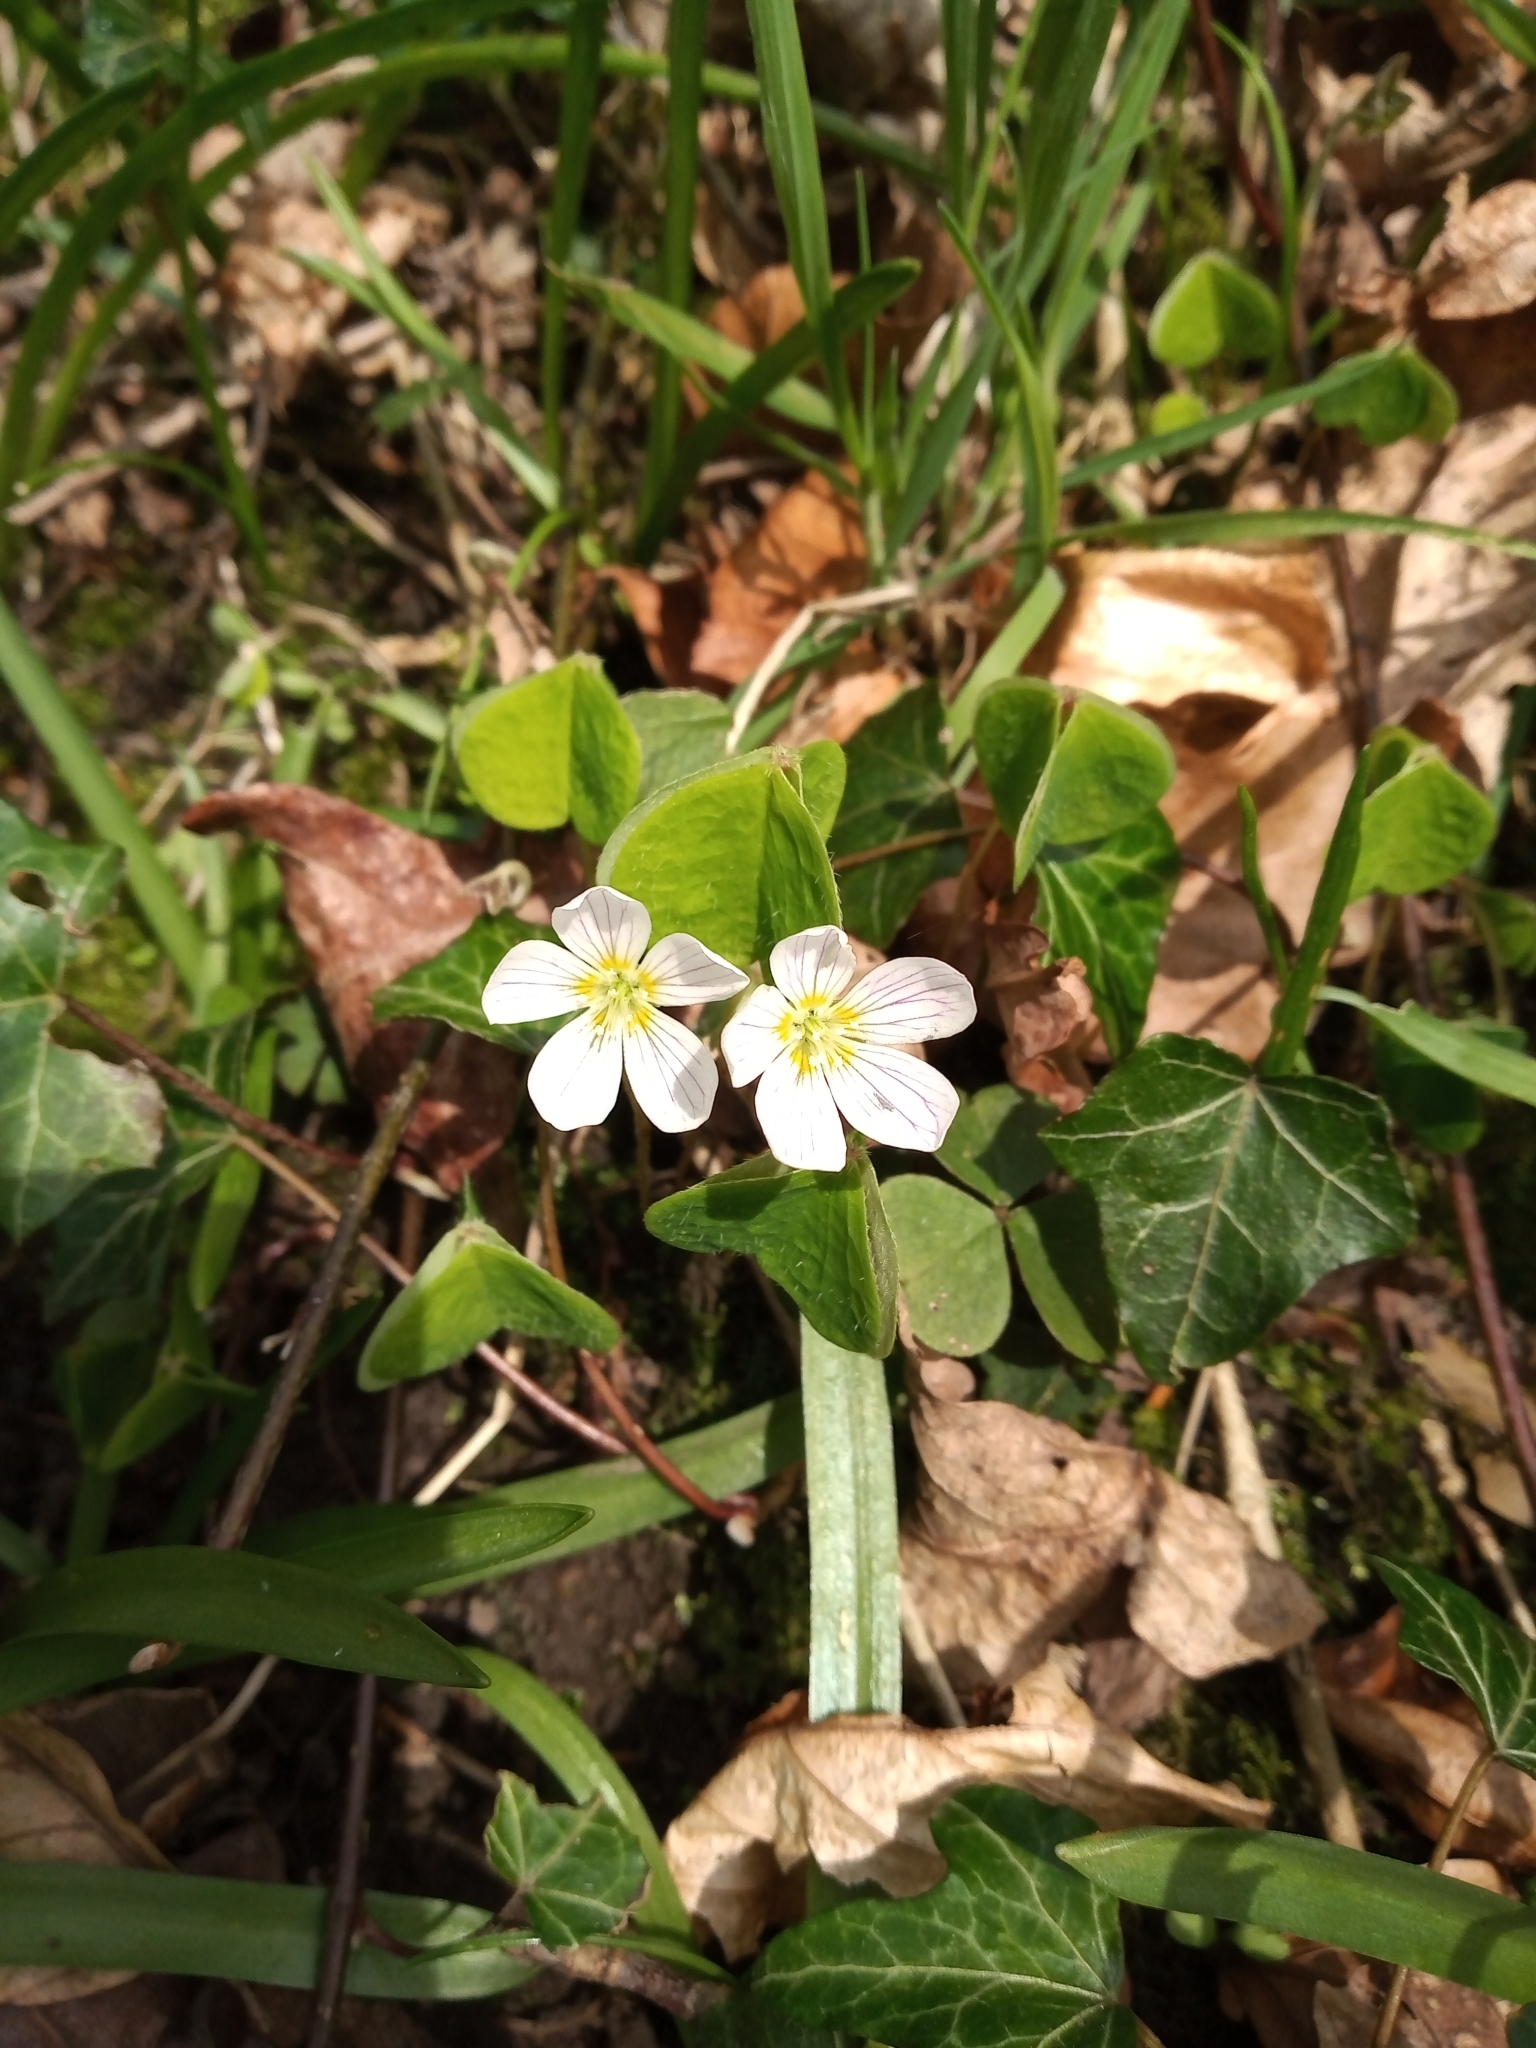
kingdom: Plantae
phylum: Tracheophyta
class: Magnoliopsida
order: Oxalidales
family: Oxalidaceae
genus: Oxalis
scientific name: Oxalis acetosella
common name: Wood-sorrel
